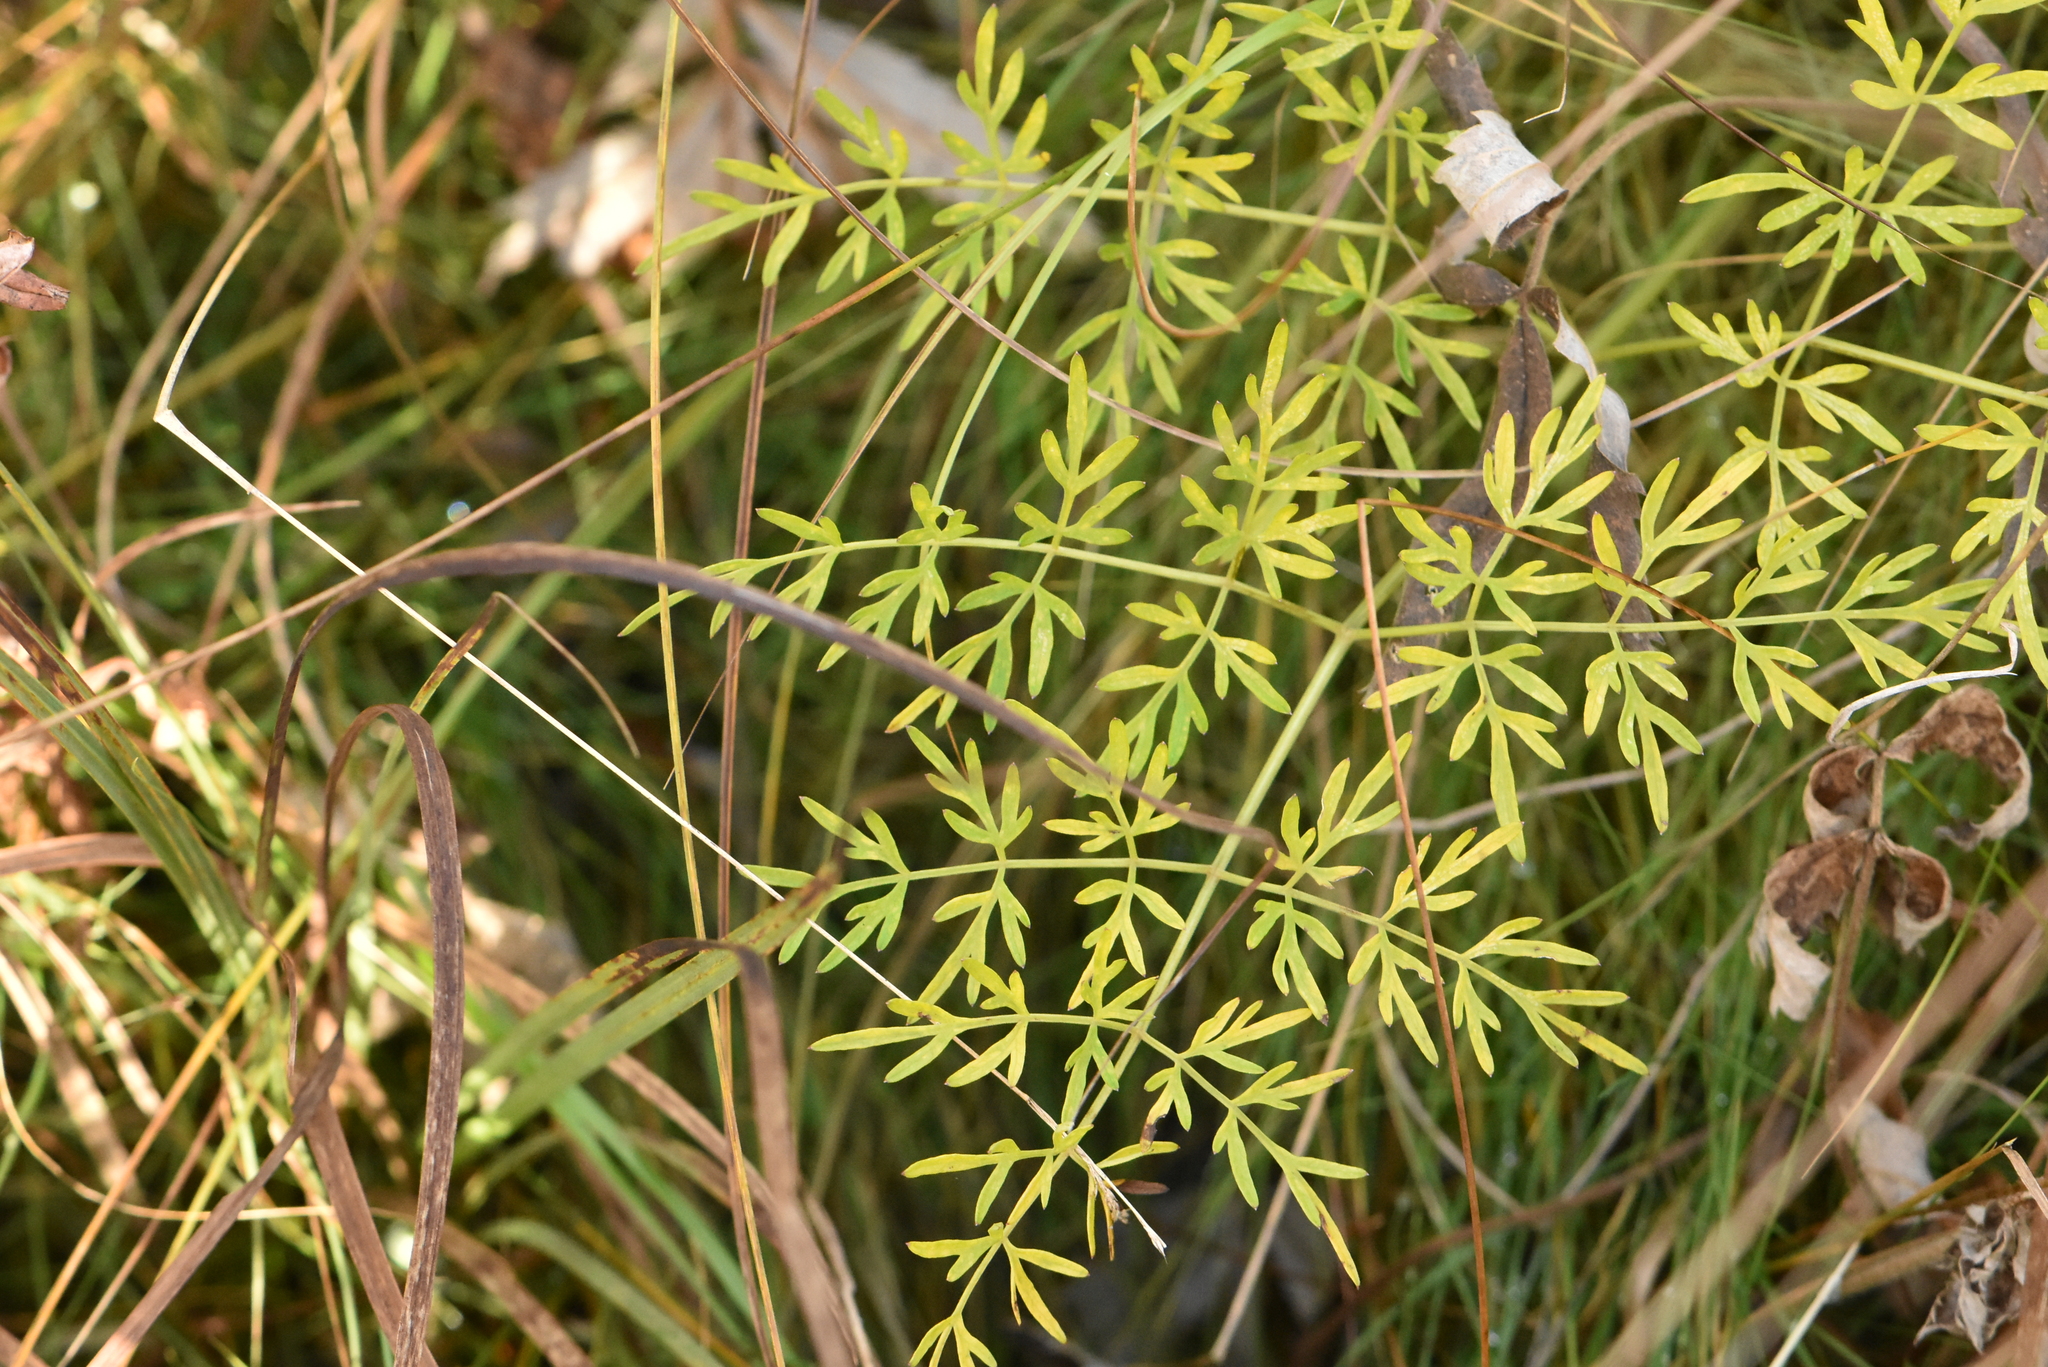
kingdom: Plantae
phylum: Tracheophyta
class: Magnoliopsida
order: Apiales
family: Apiaceae
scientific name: Apiaceae
